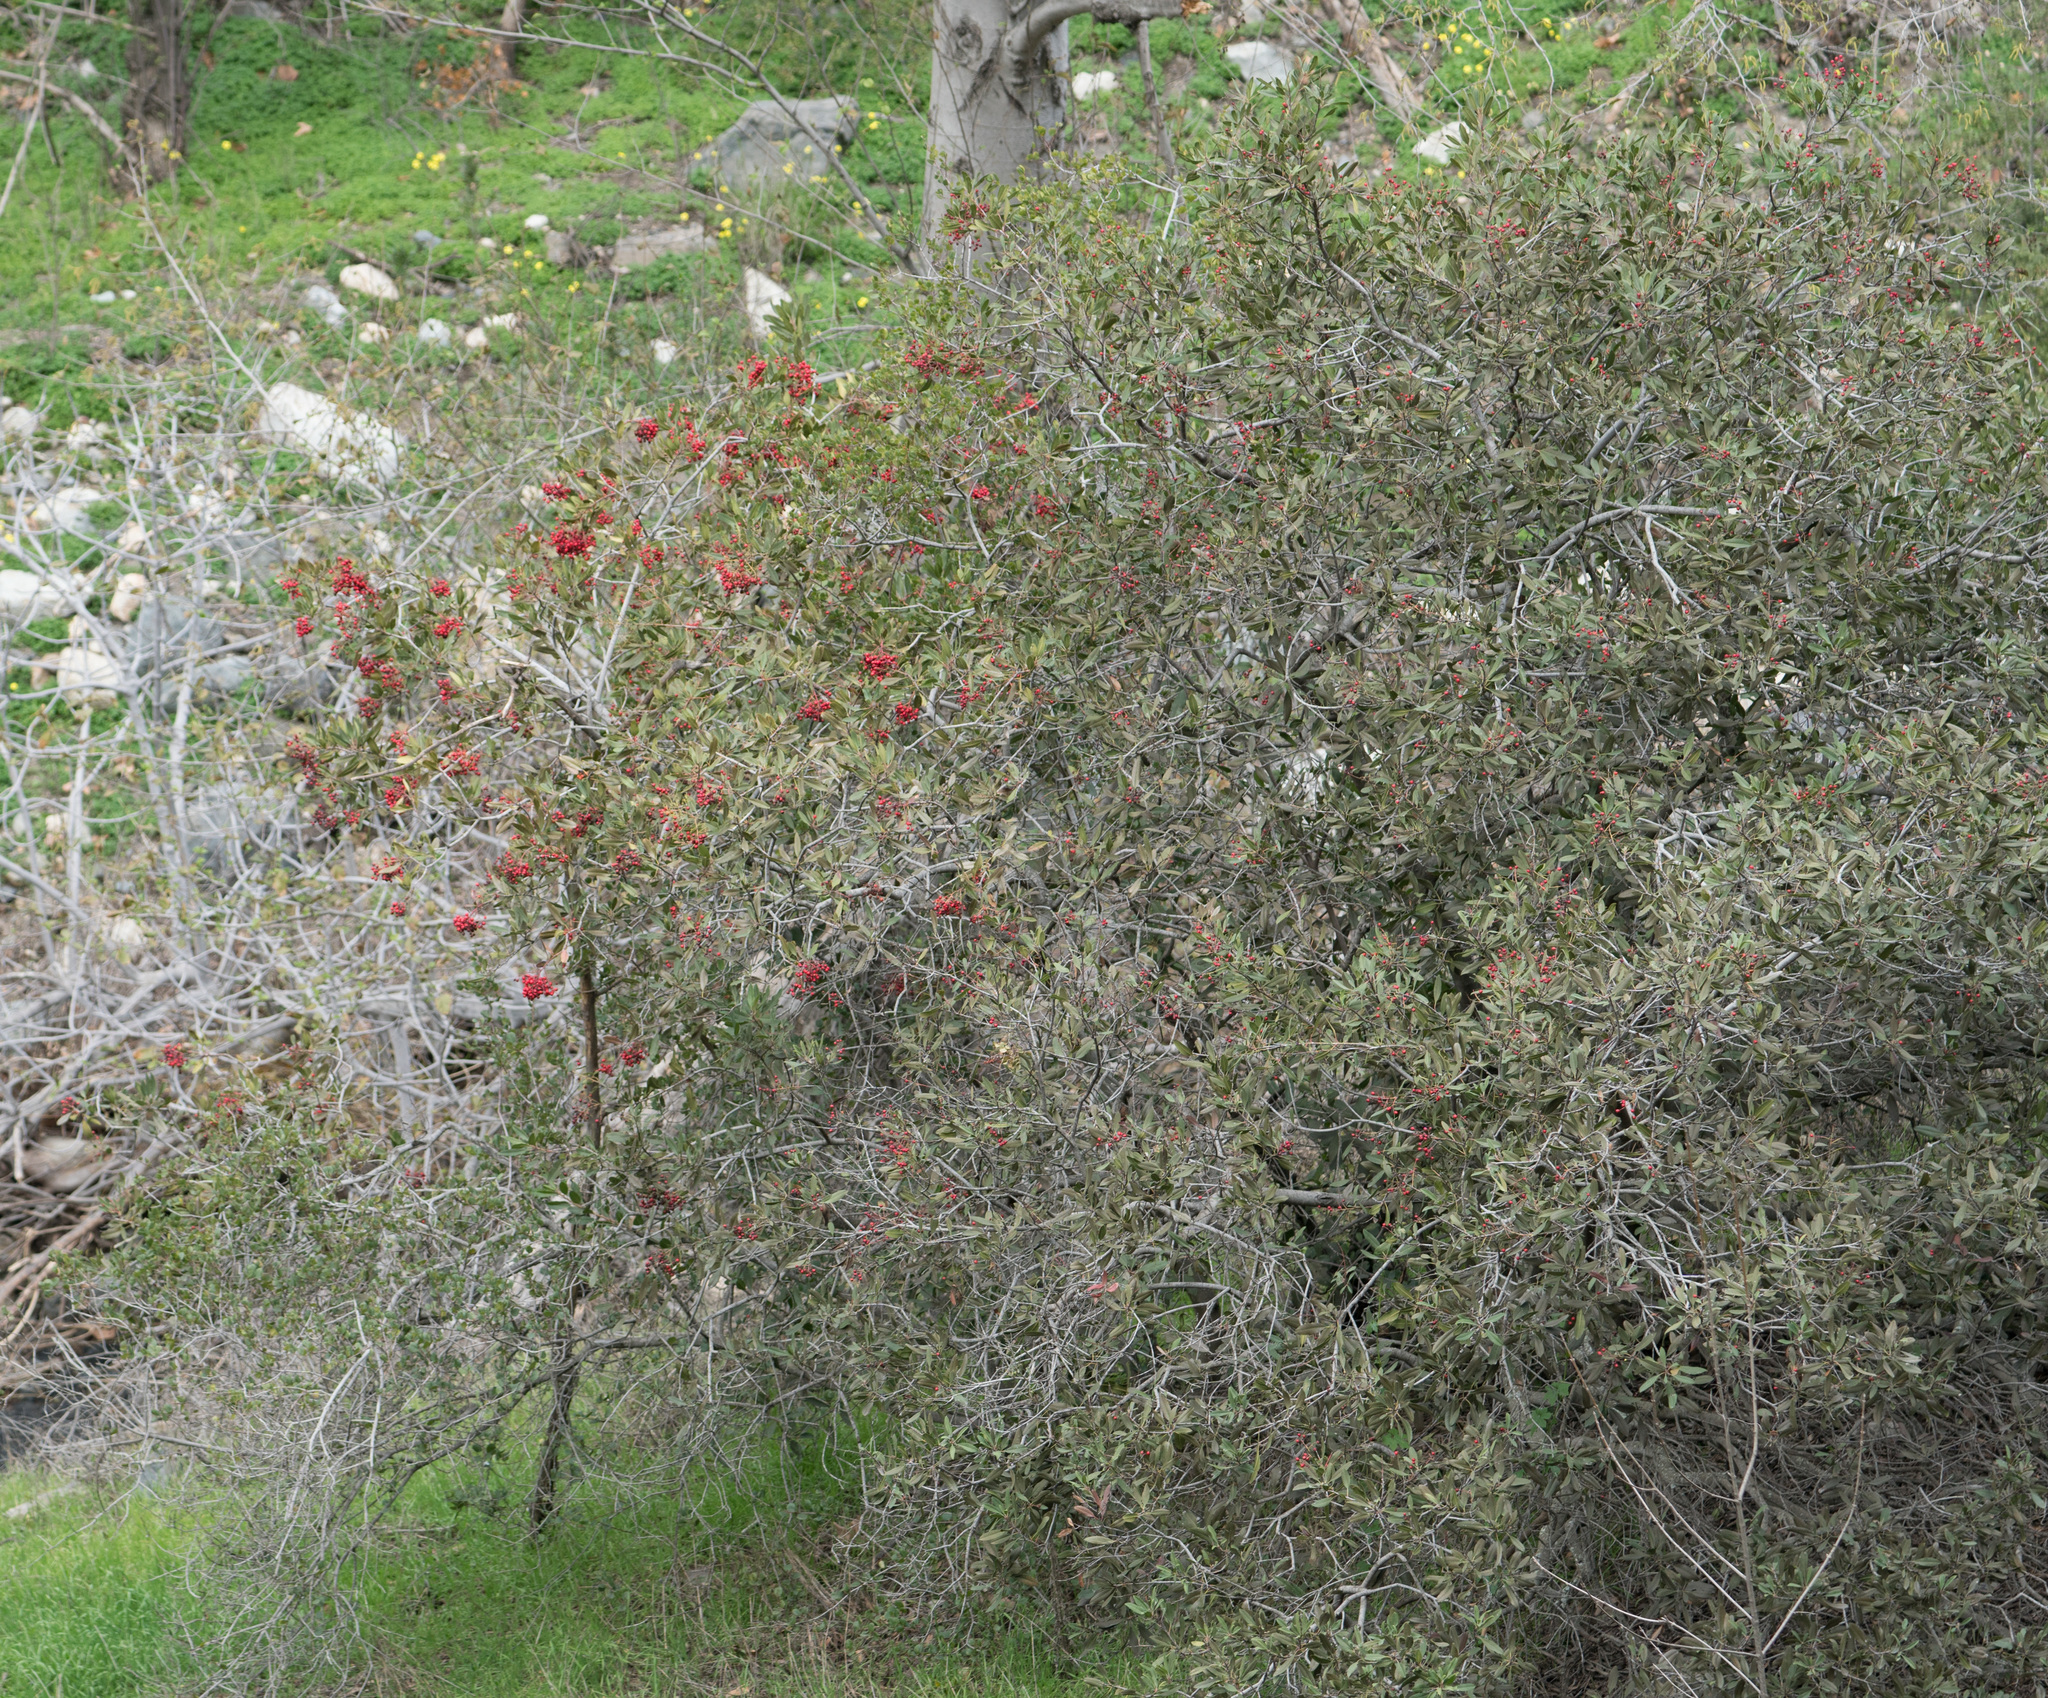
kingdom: Plantae
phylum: Tracheophyta
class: Magnoliopsida
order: Rosales
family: Rosaceae
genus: Heteromeles
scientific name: Heteromeles arbutifolia
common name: California-holly
